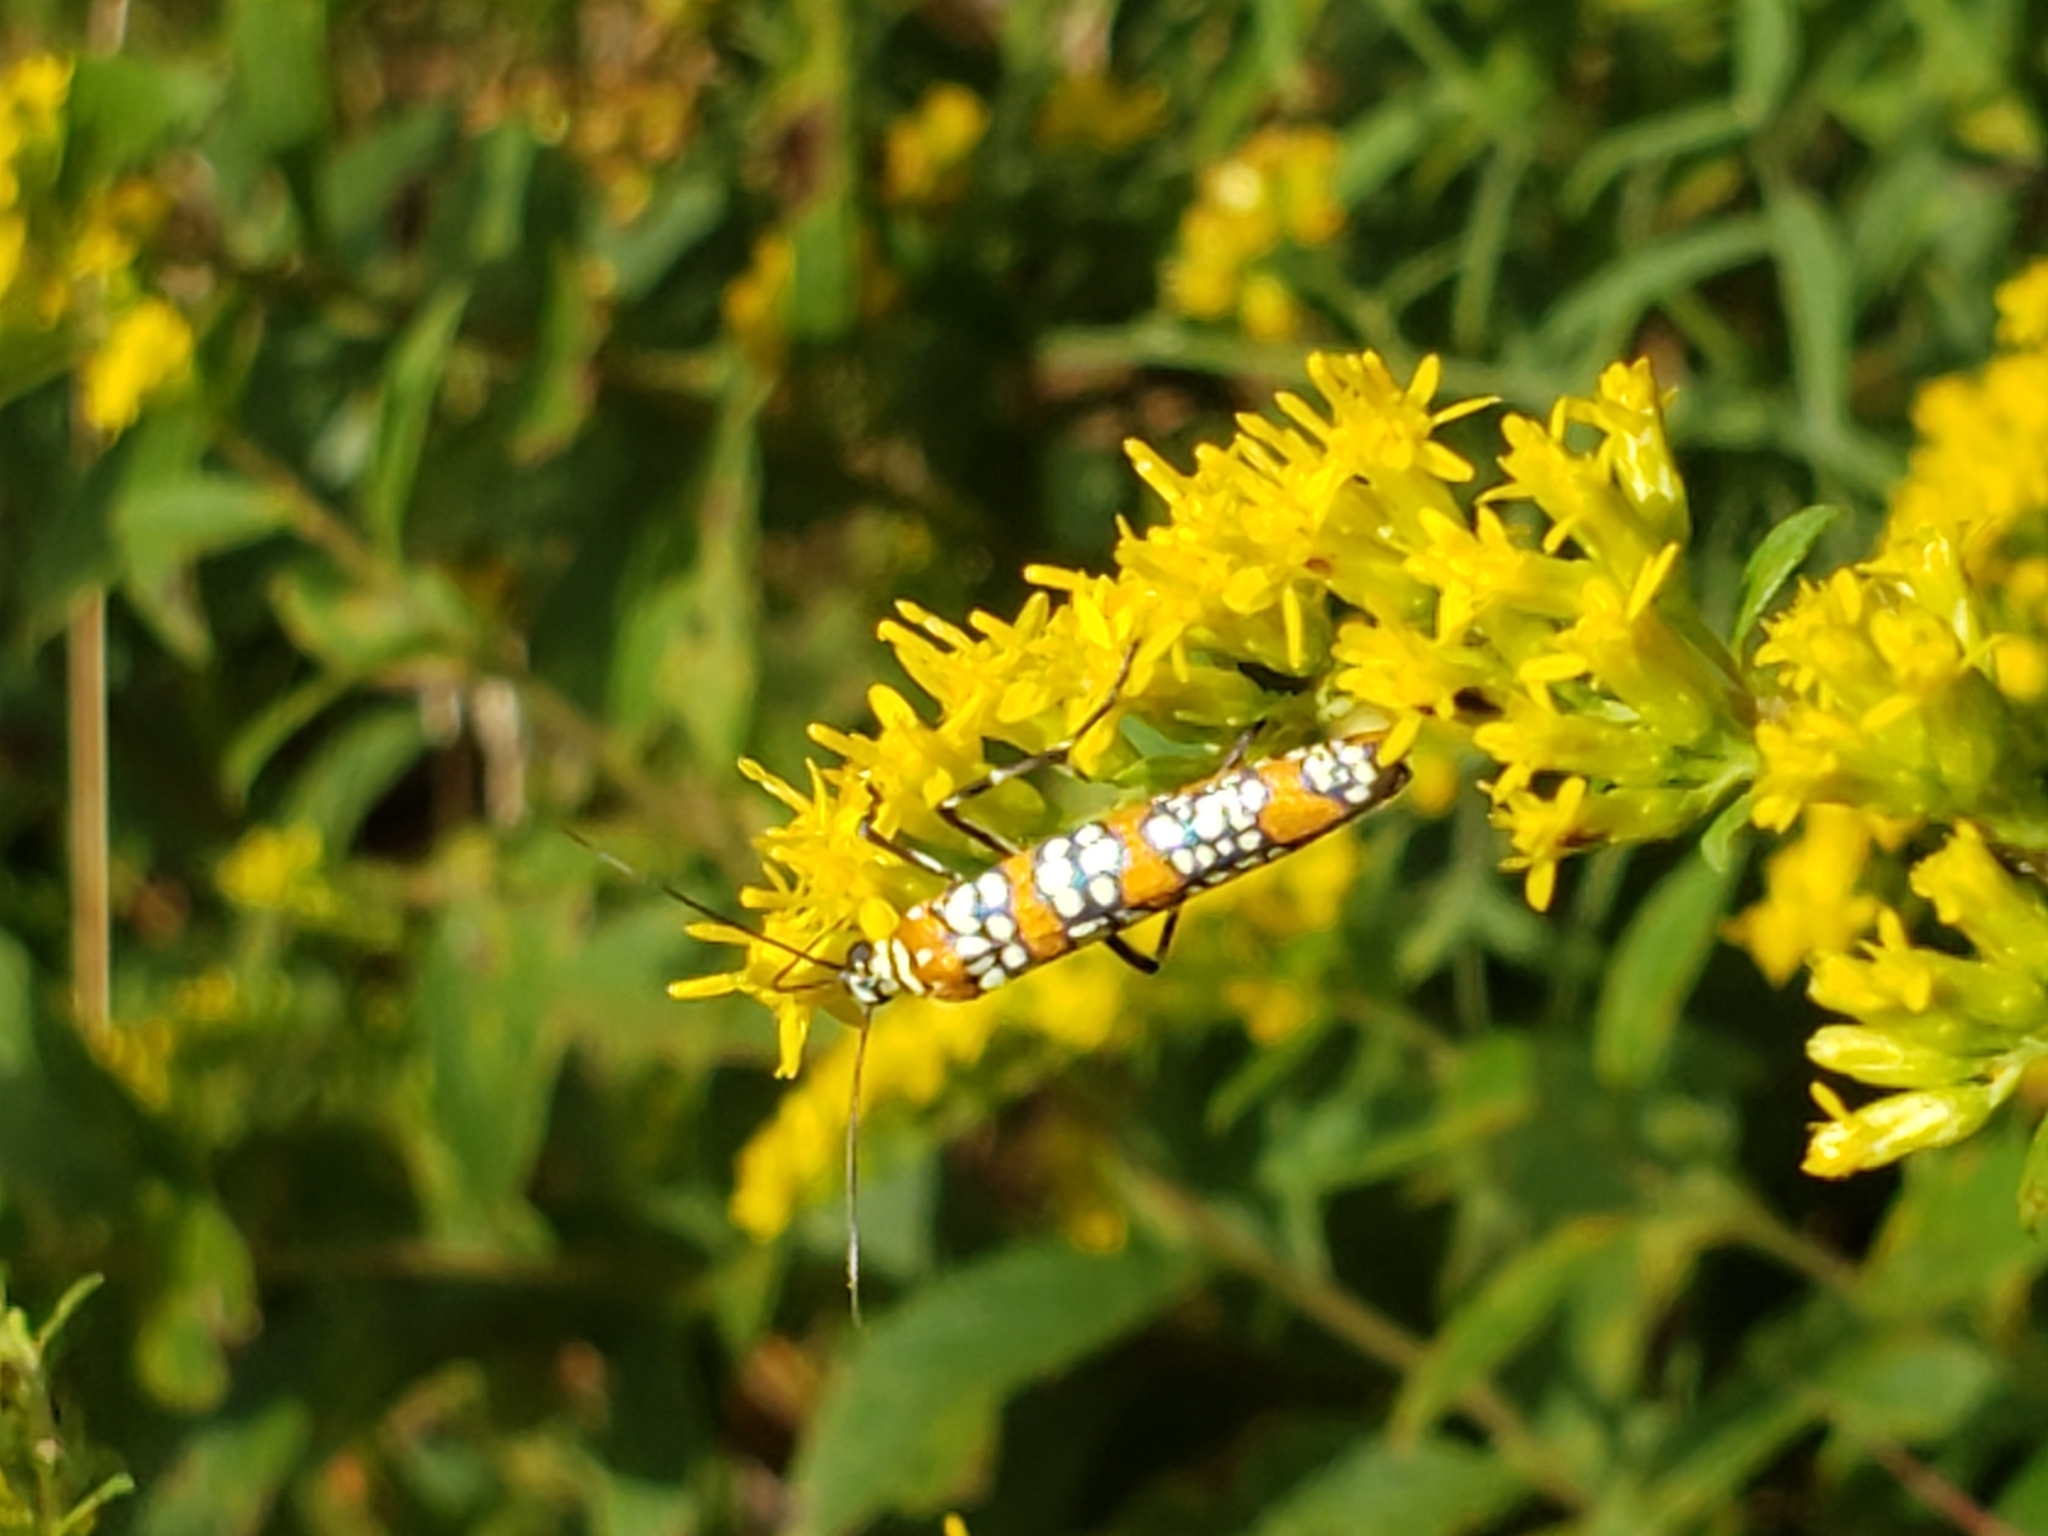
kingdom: Animalia
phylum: Arthropoda
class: Insecta
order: Lepidoptera
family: Attevidae
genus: Atteva
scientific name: Atteva punctella
